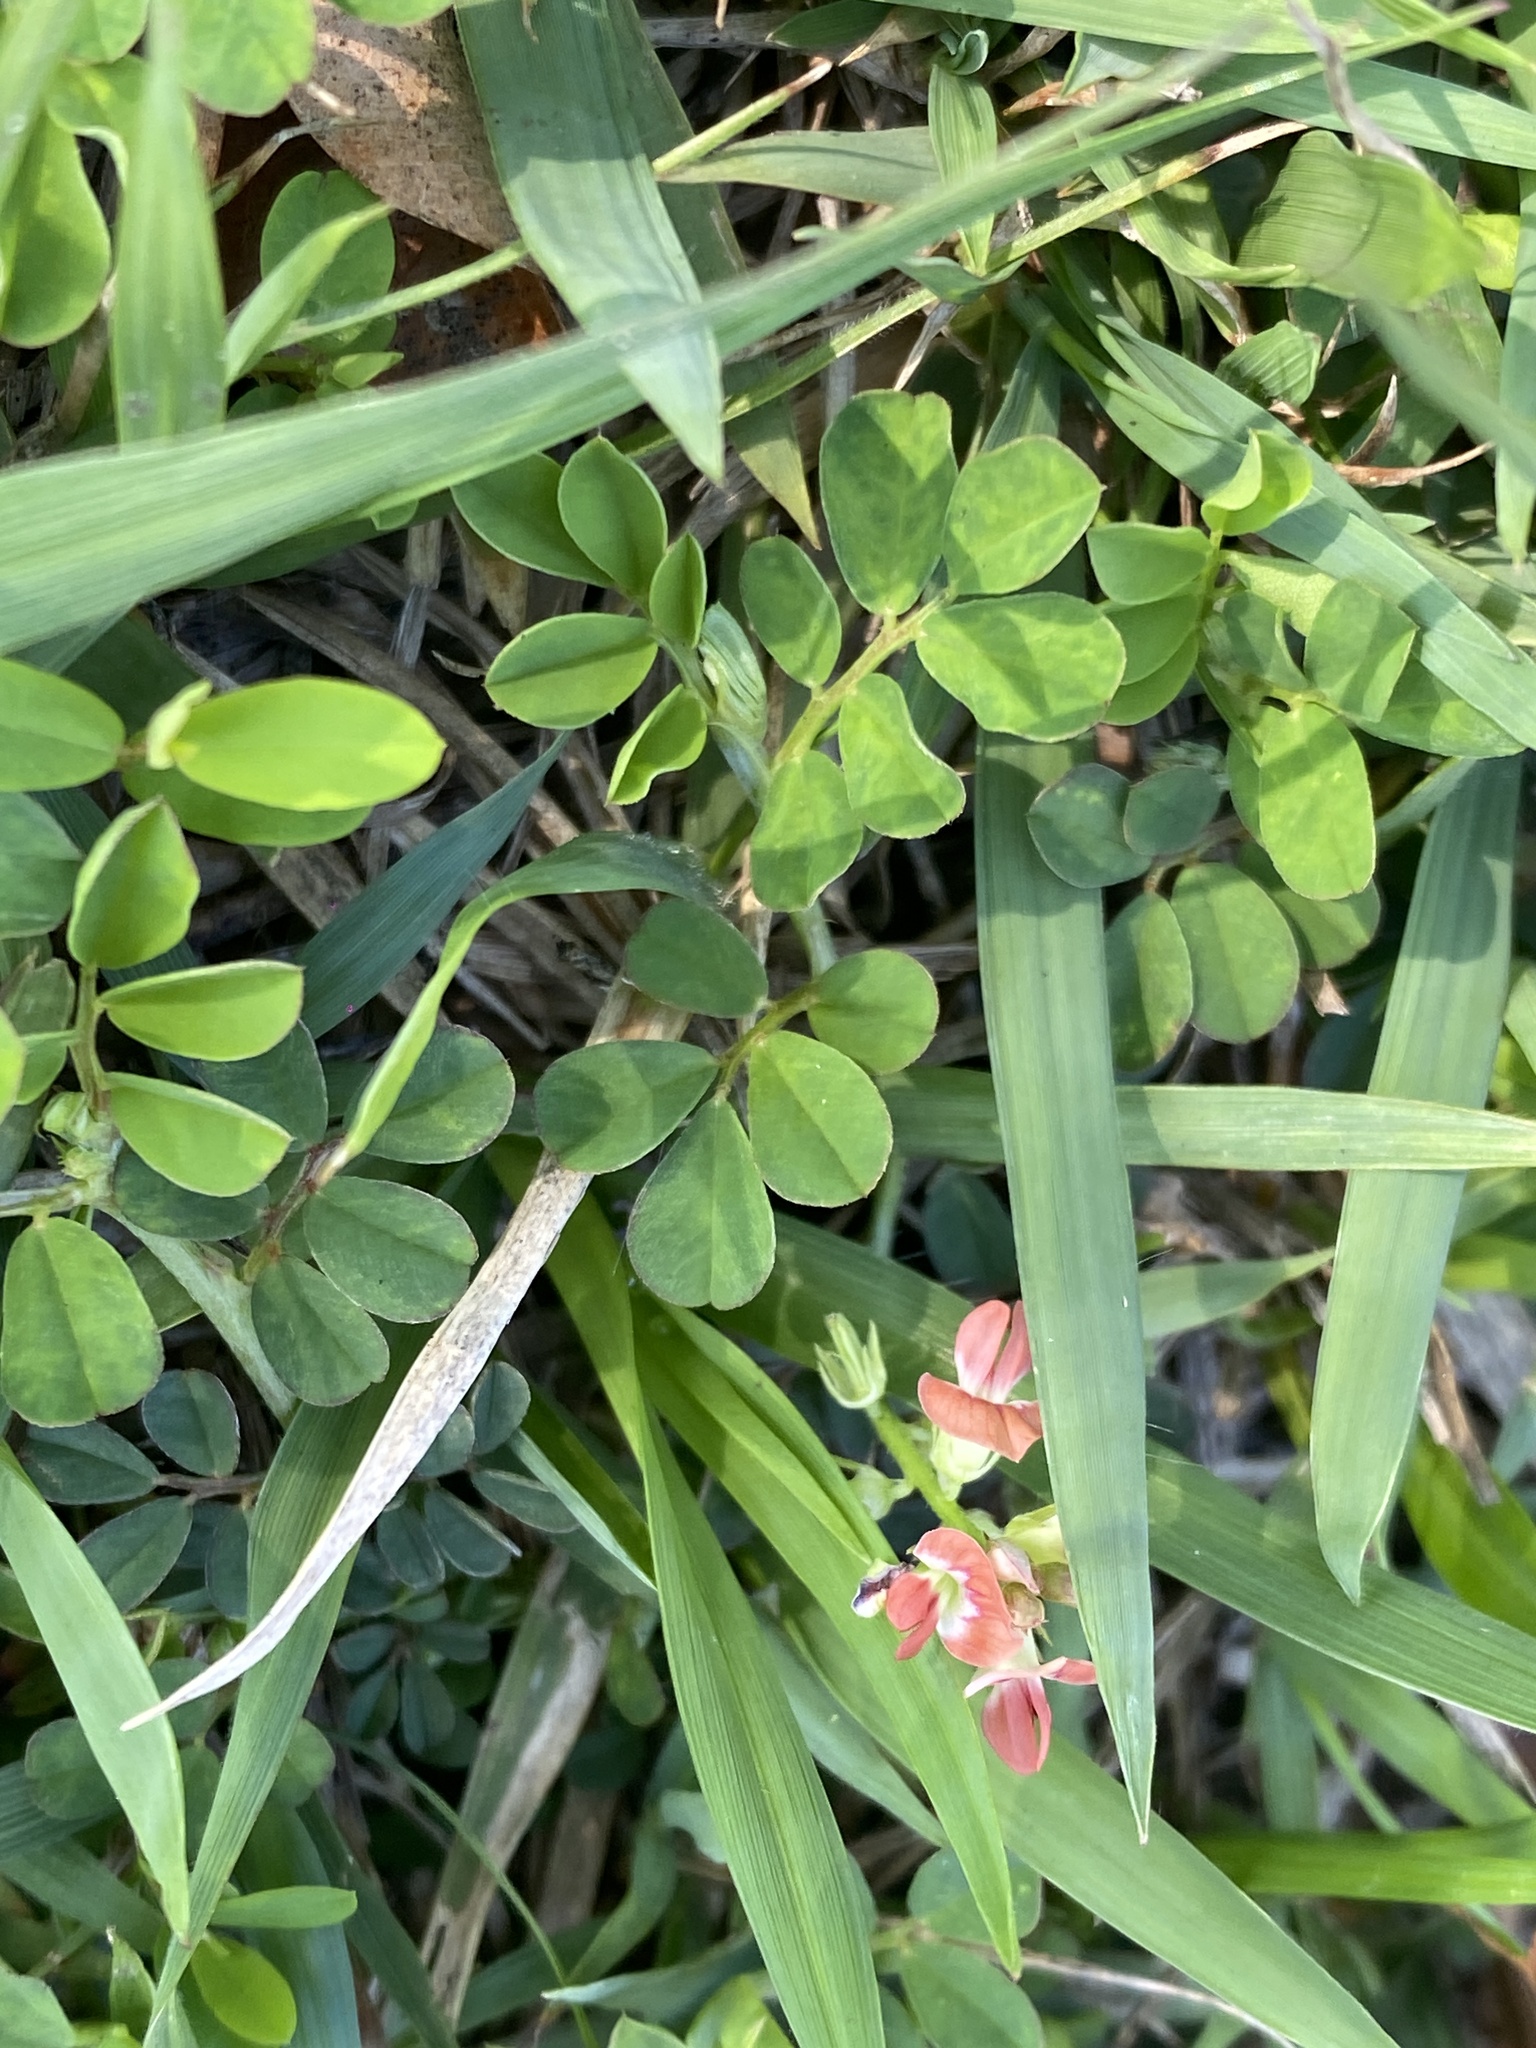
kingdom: Plantae
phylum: Tracheophyta
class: Magnoliopsida
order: Fabales
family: Fabaceae
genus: Indigofera
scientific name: Indigofera spicata
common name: Creeping indigo
